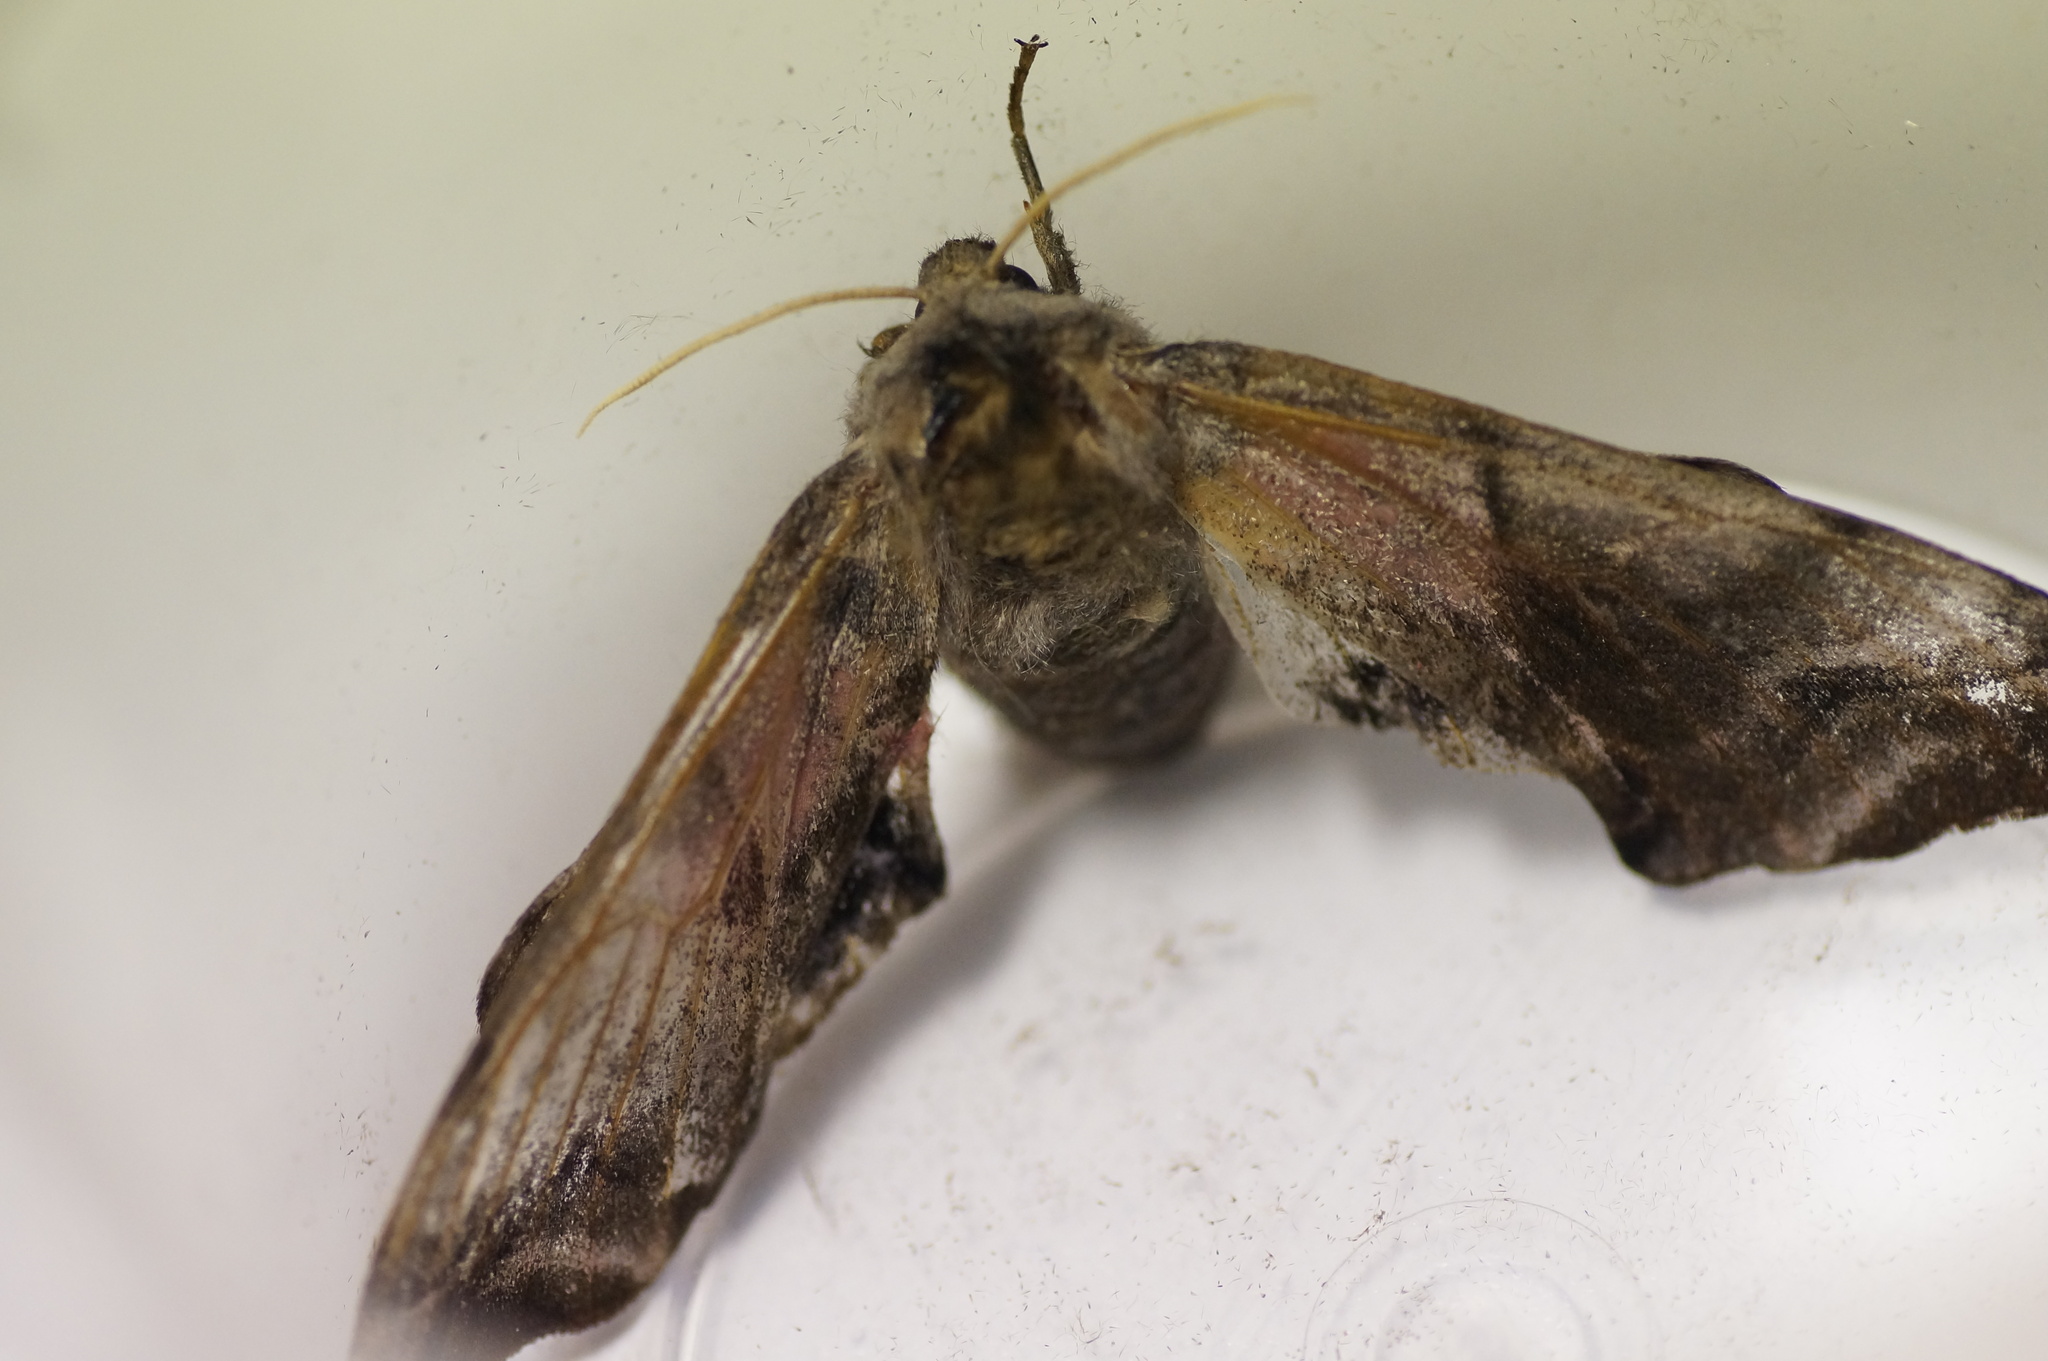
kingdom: Animalia
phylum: Arthropoda
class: Insecta
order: Lepidoptera
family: Sphingidae
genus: Smerinthus
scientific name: Smerinthus ocellata
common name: Eyed hawk-moth
